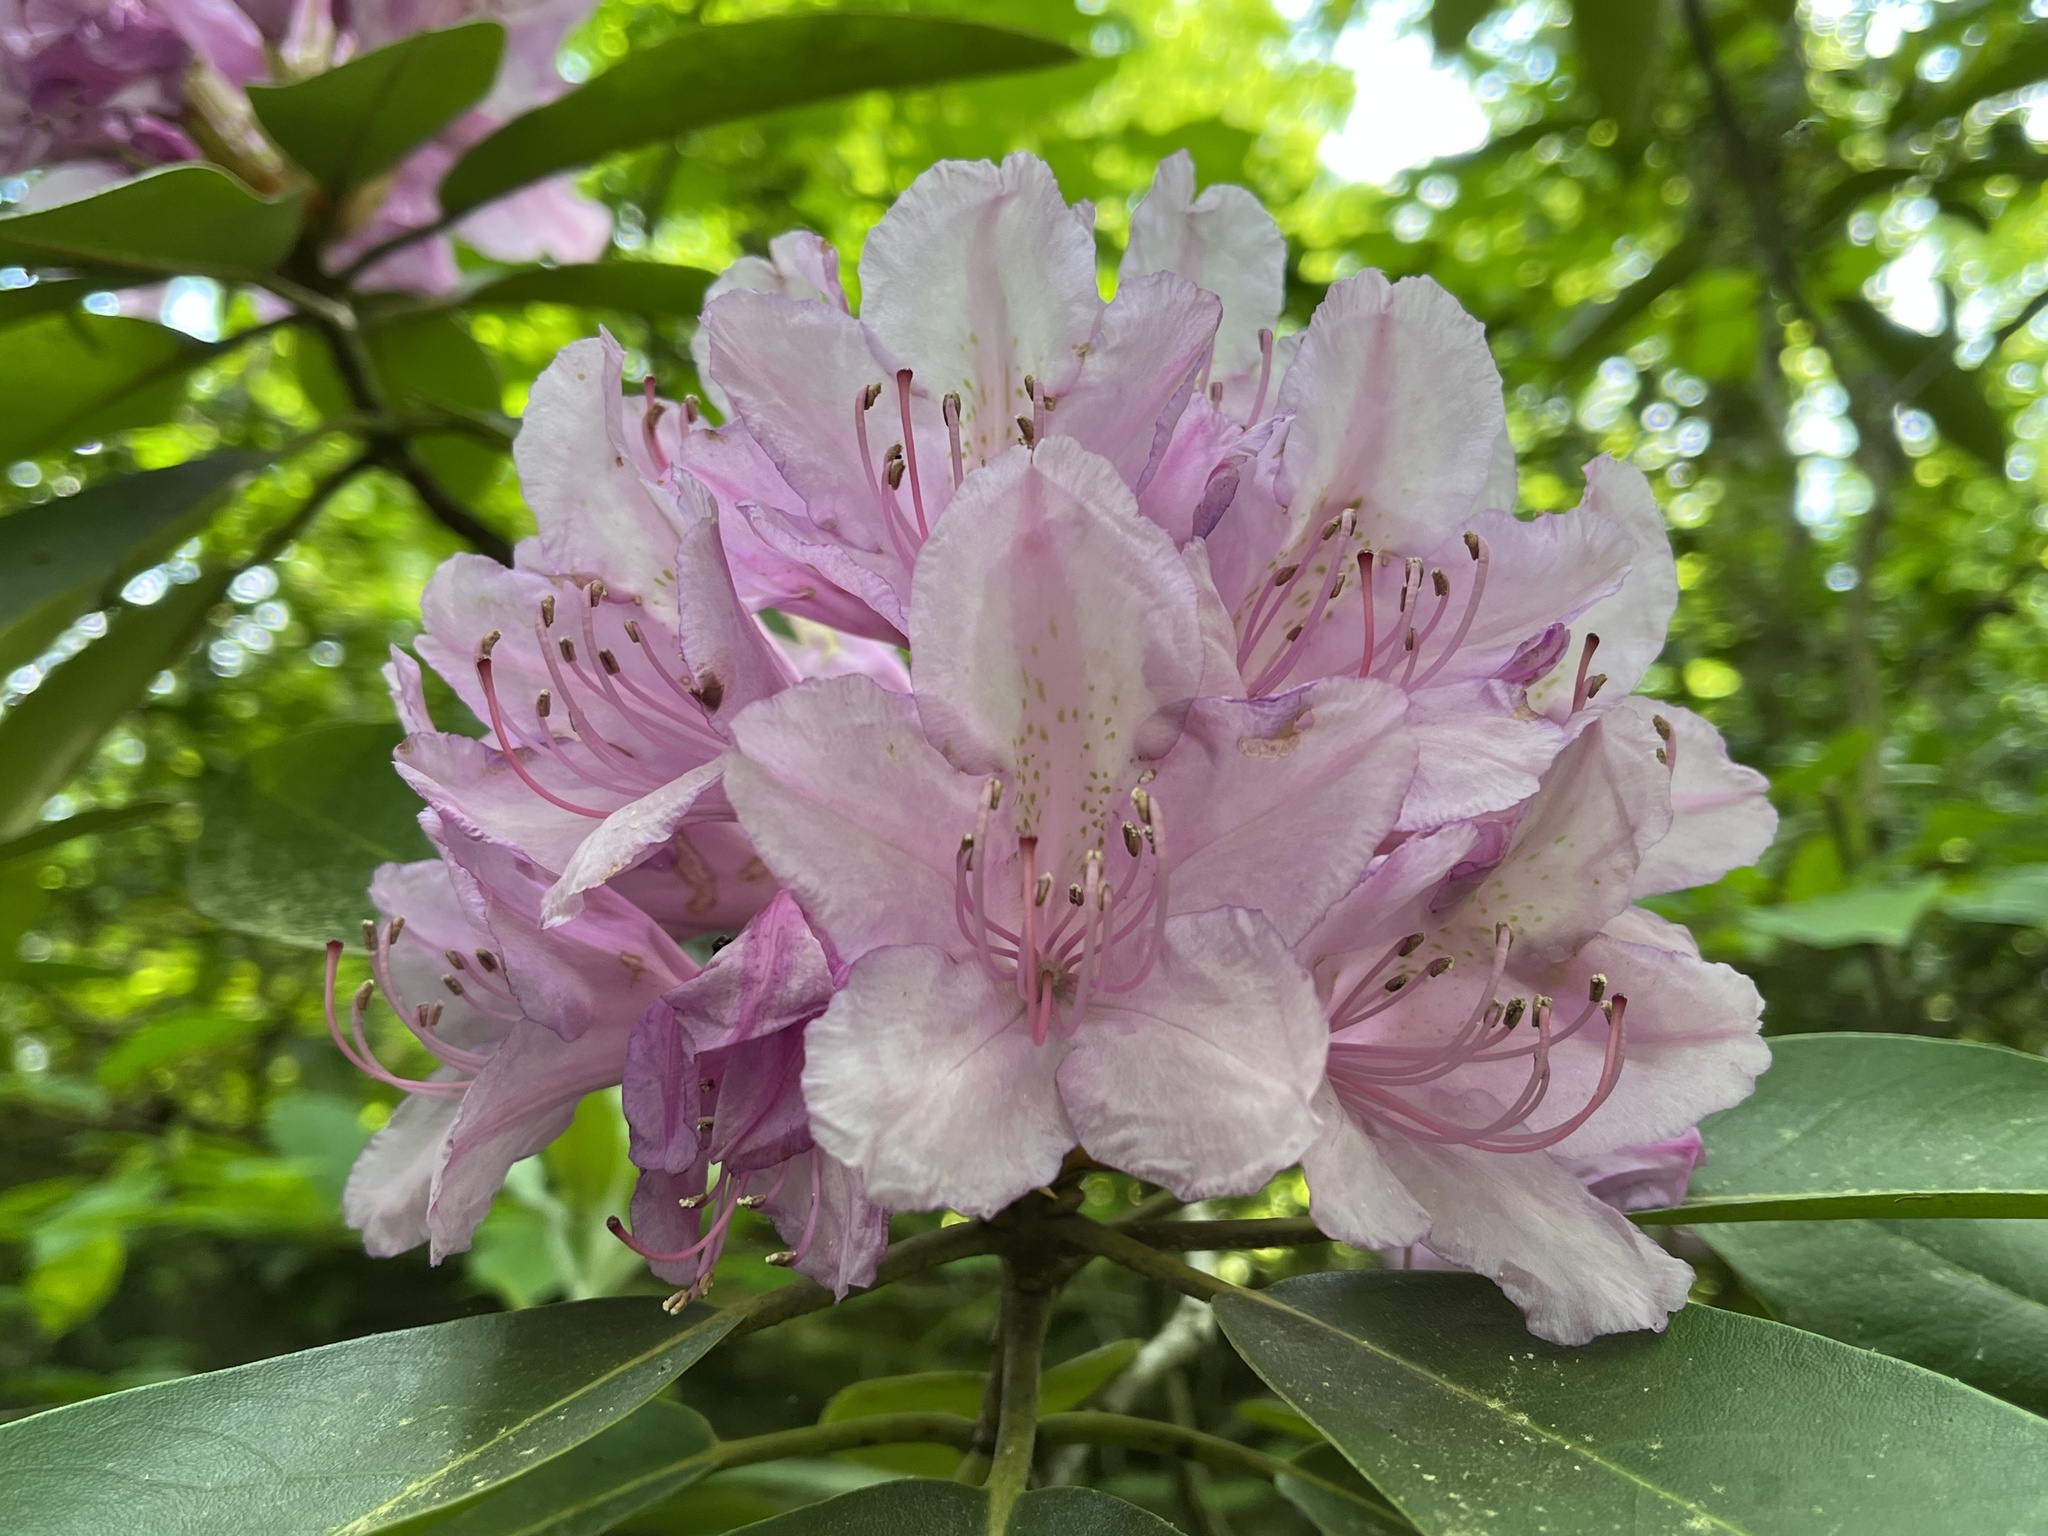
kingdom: Plantae
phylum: Tracheophyta
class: Magnoliopsida
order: Ericales
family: Ericaceae
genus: Rhododendron
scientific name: Rhododendron catawbiense
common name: Catawba rhododendron
